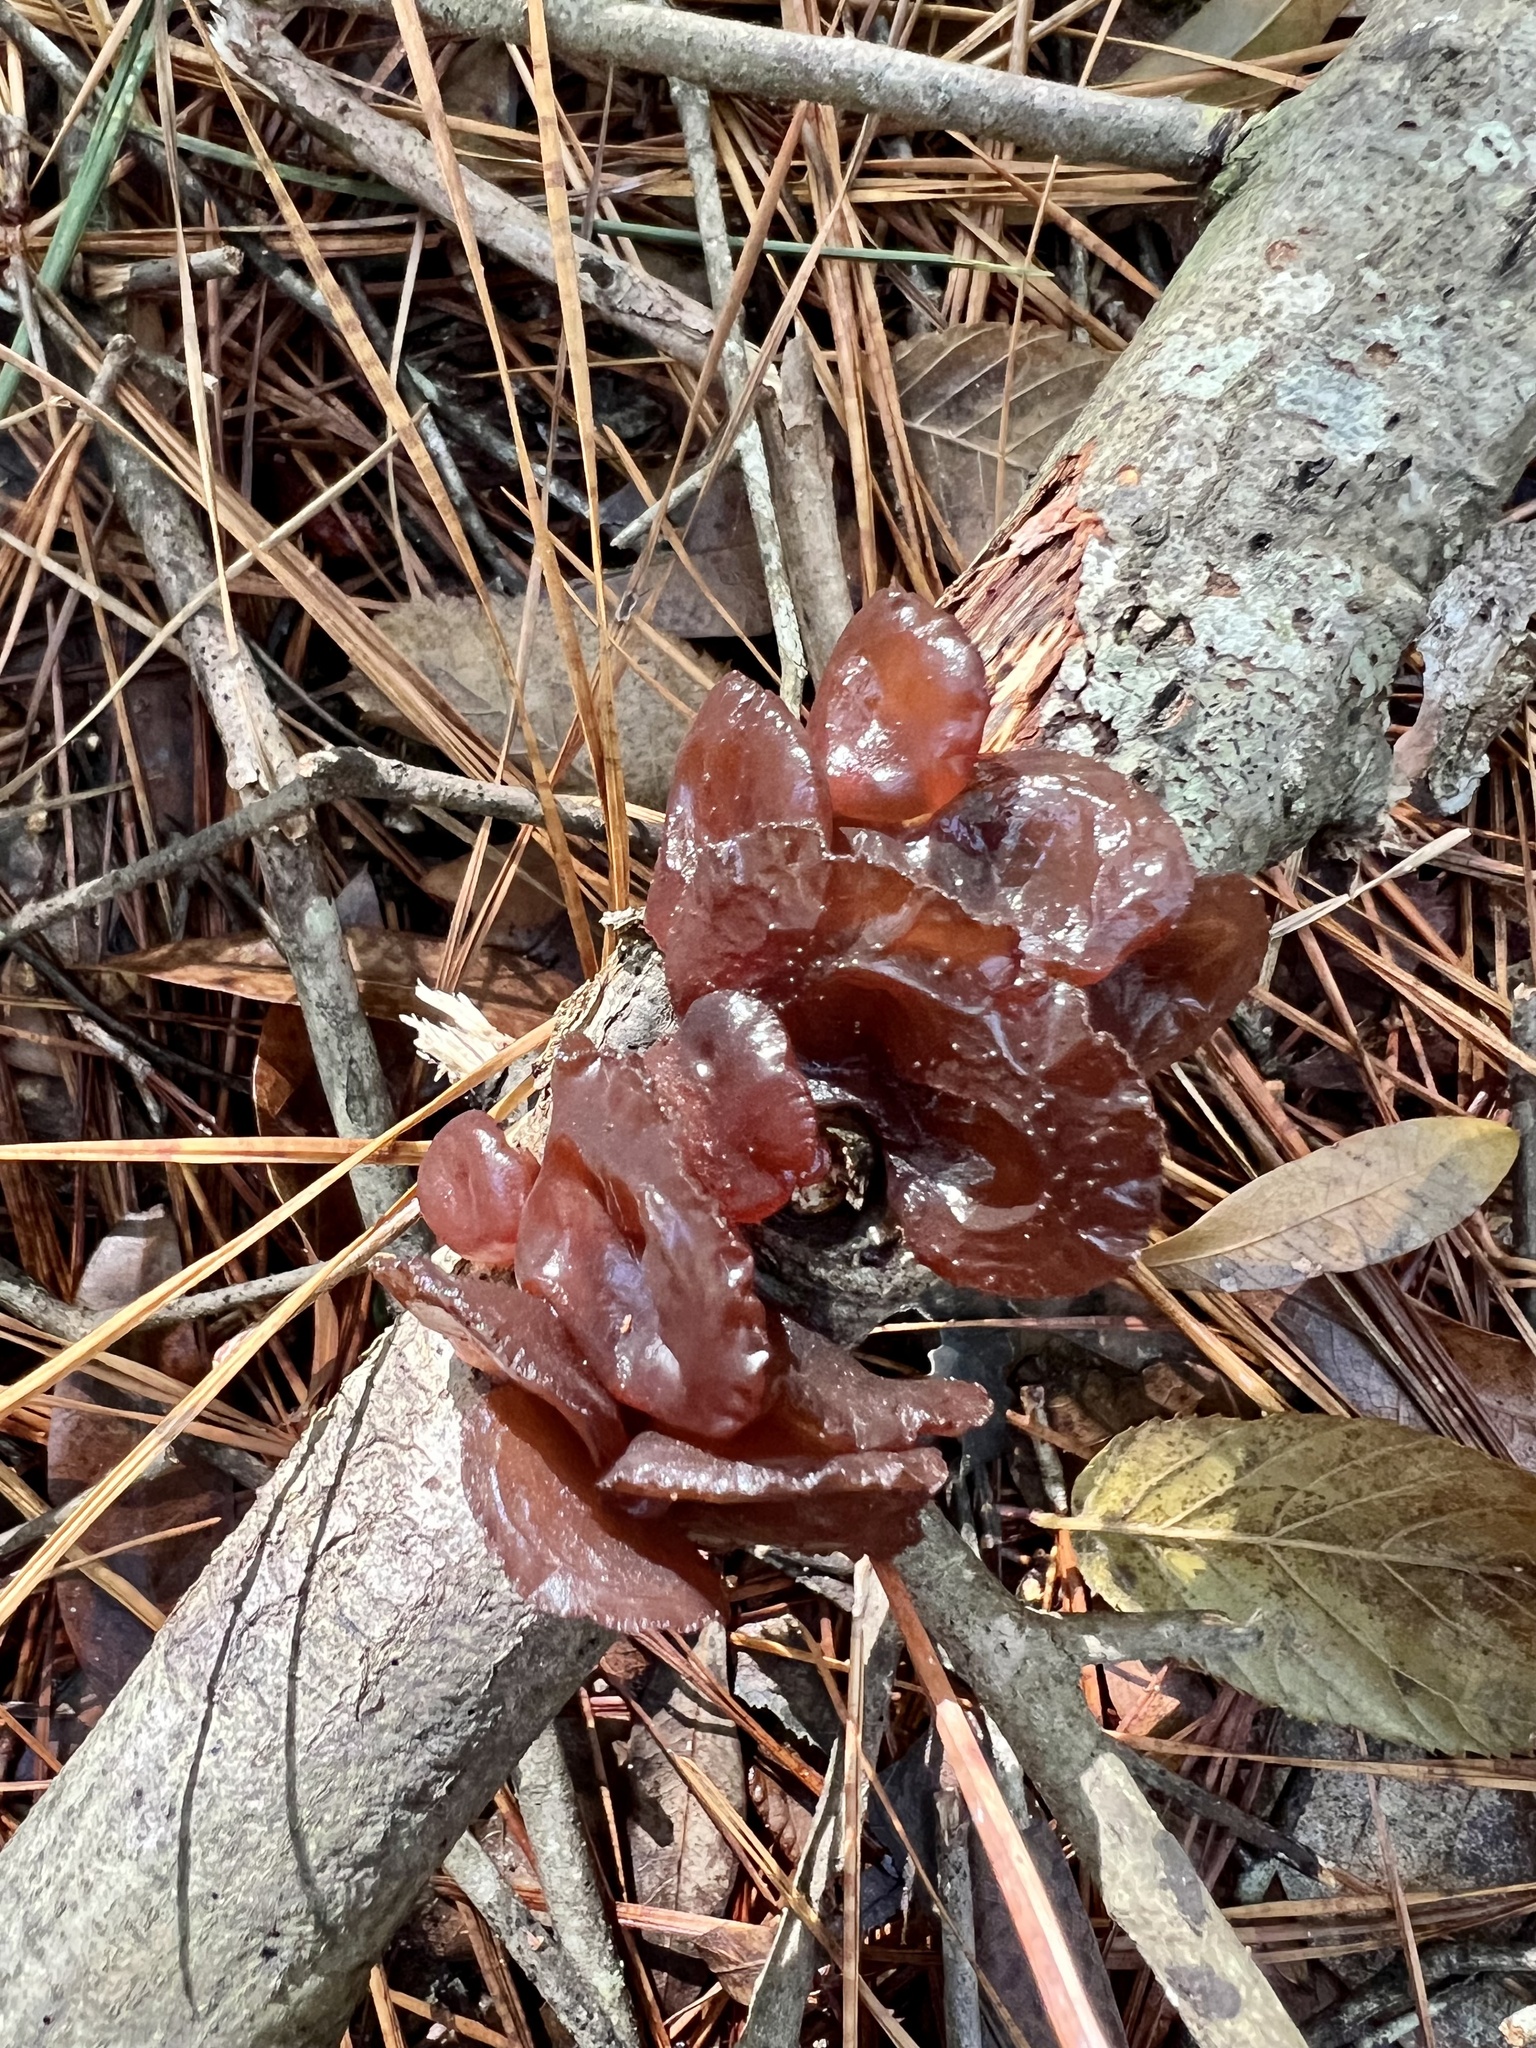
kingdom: Fungi
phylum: Basidiomycota
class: Agaricomycetes
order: Auriculariales
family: Auriculariaceae
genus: Exidia
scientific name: Exidia
